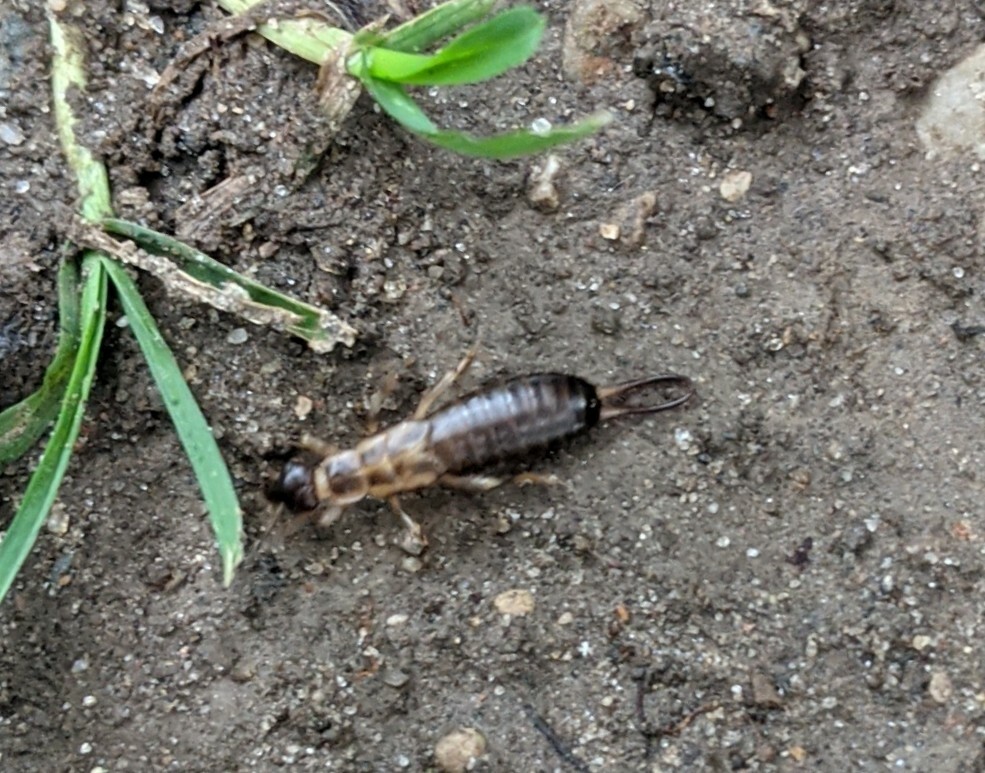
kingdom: Animalia
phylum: Arthropoda
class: Insecta
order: Dermaptera
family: Forficulidae
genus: Forficula
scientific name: Forficula
